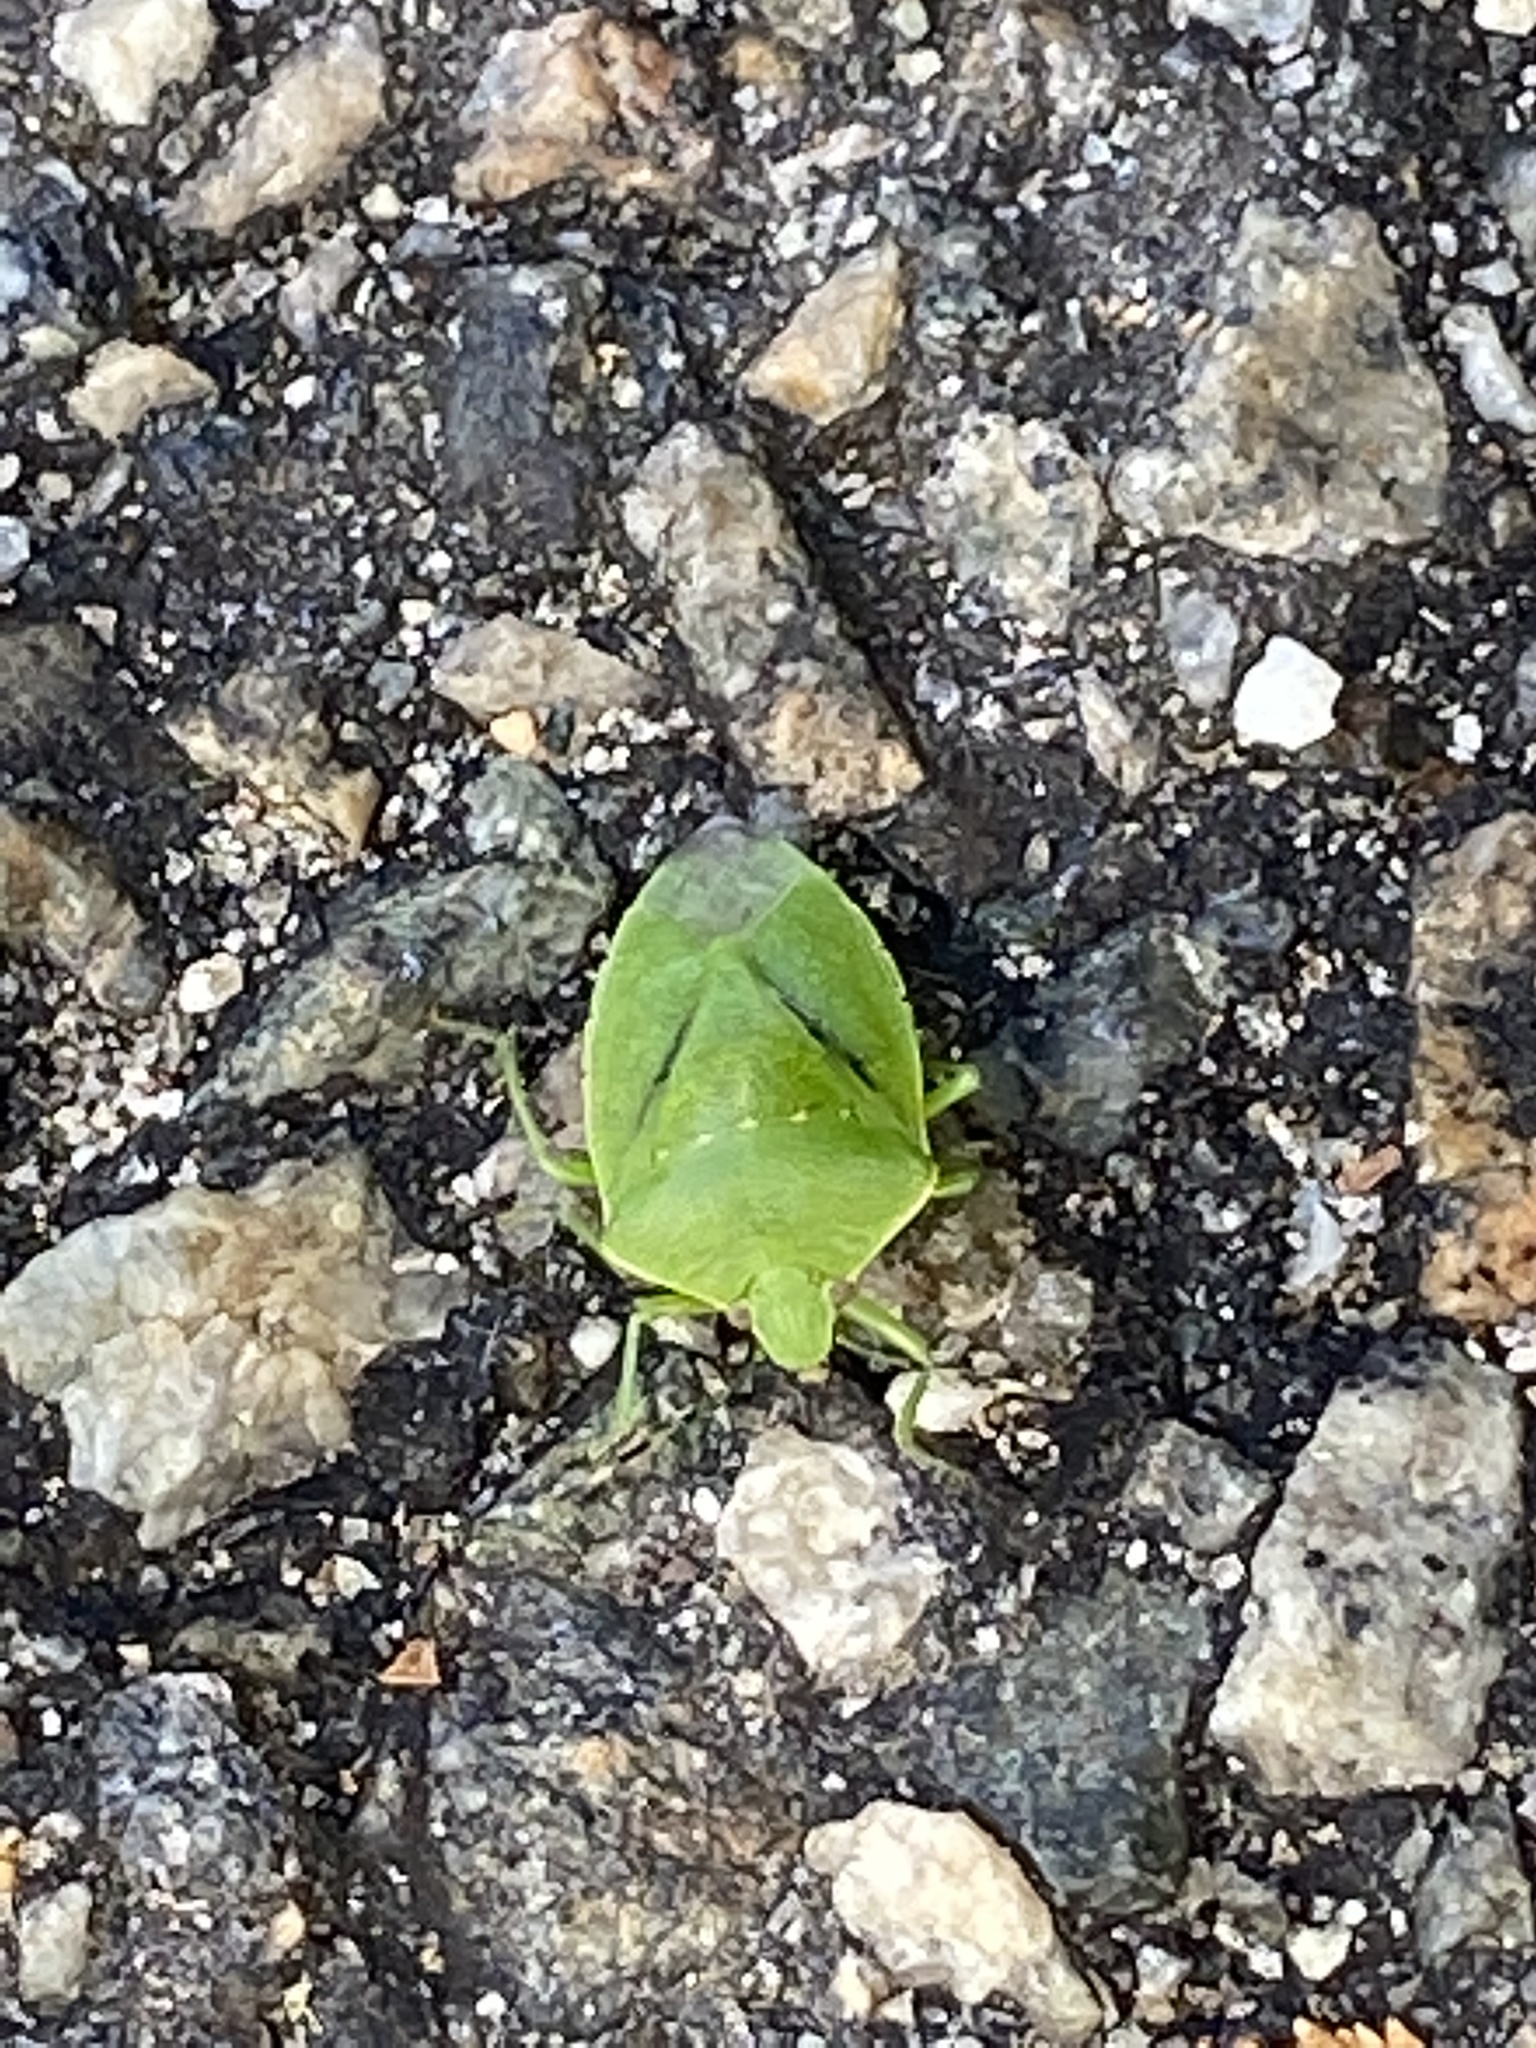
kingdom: Animalia
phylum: Arthropoda
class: Insecta
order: Hemiptera
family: Pentatomidae
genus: Chinavia
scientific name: Chinavia hilaris
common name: Green stink bug
